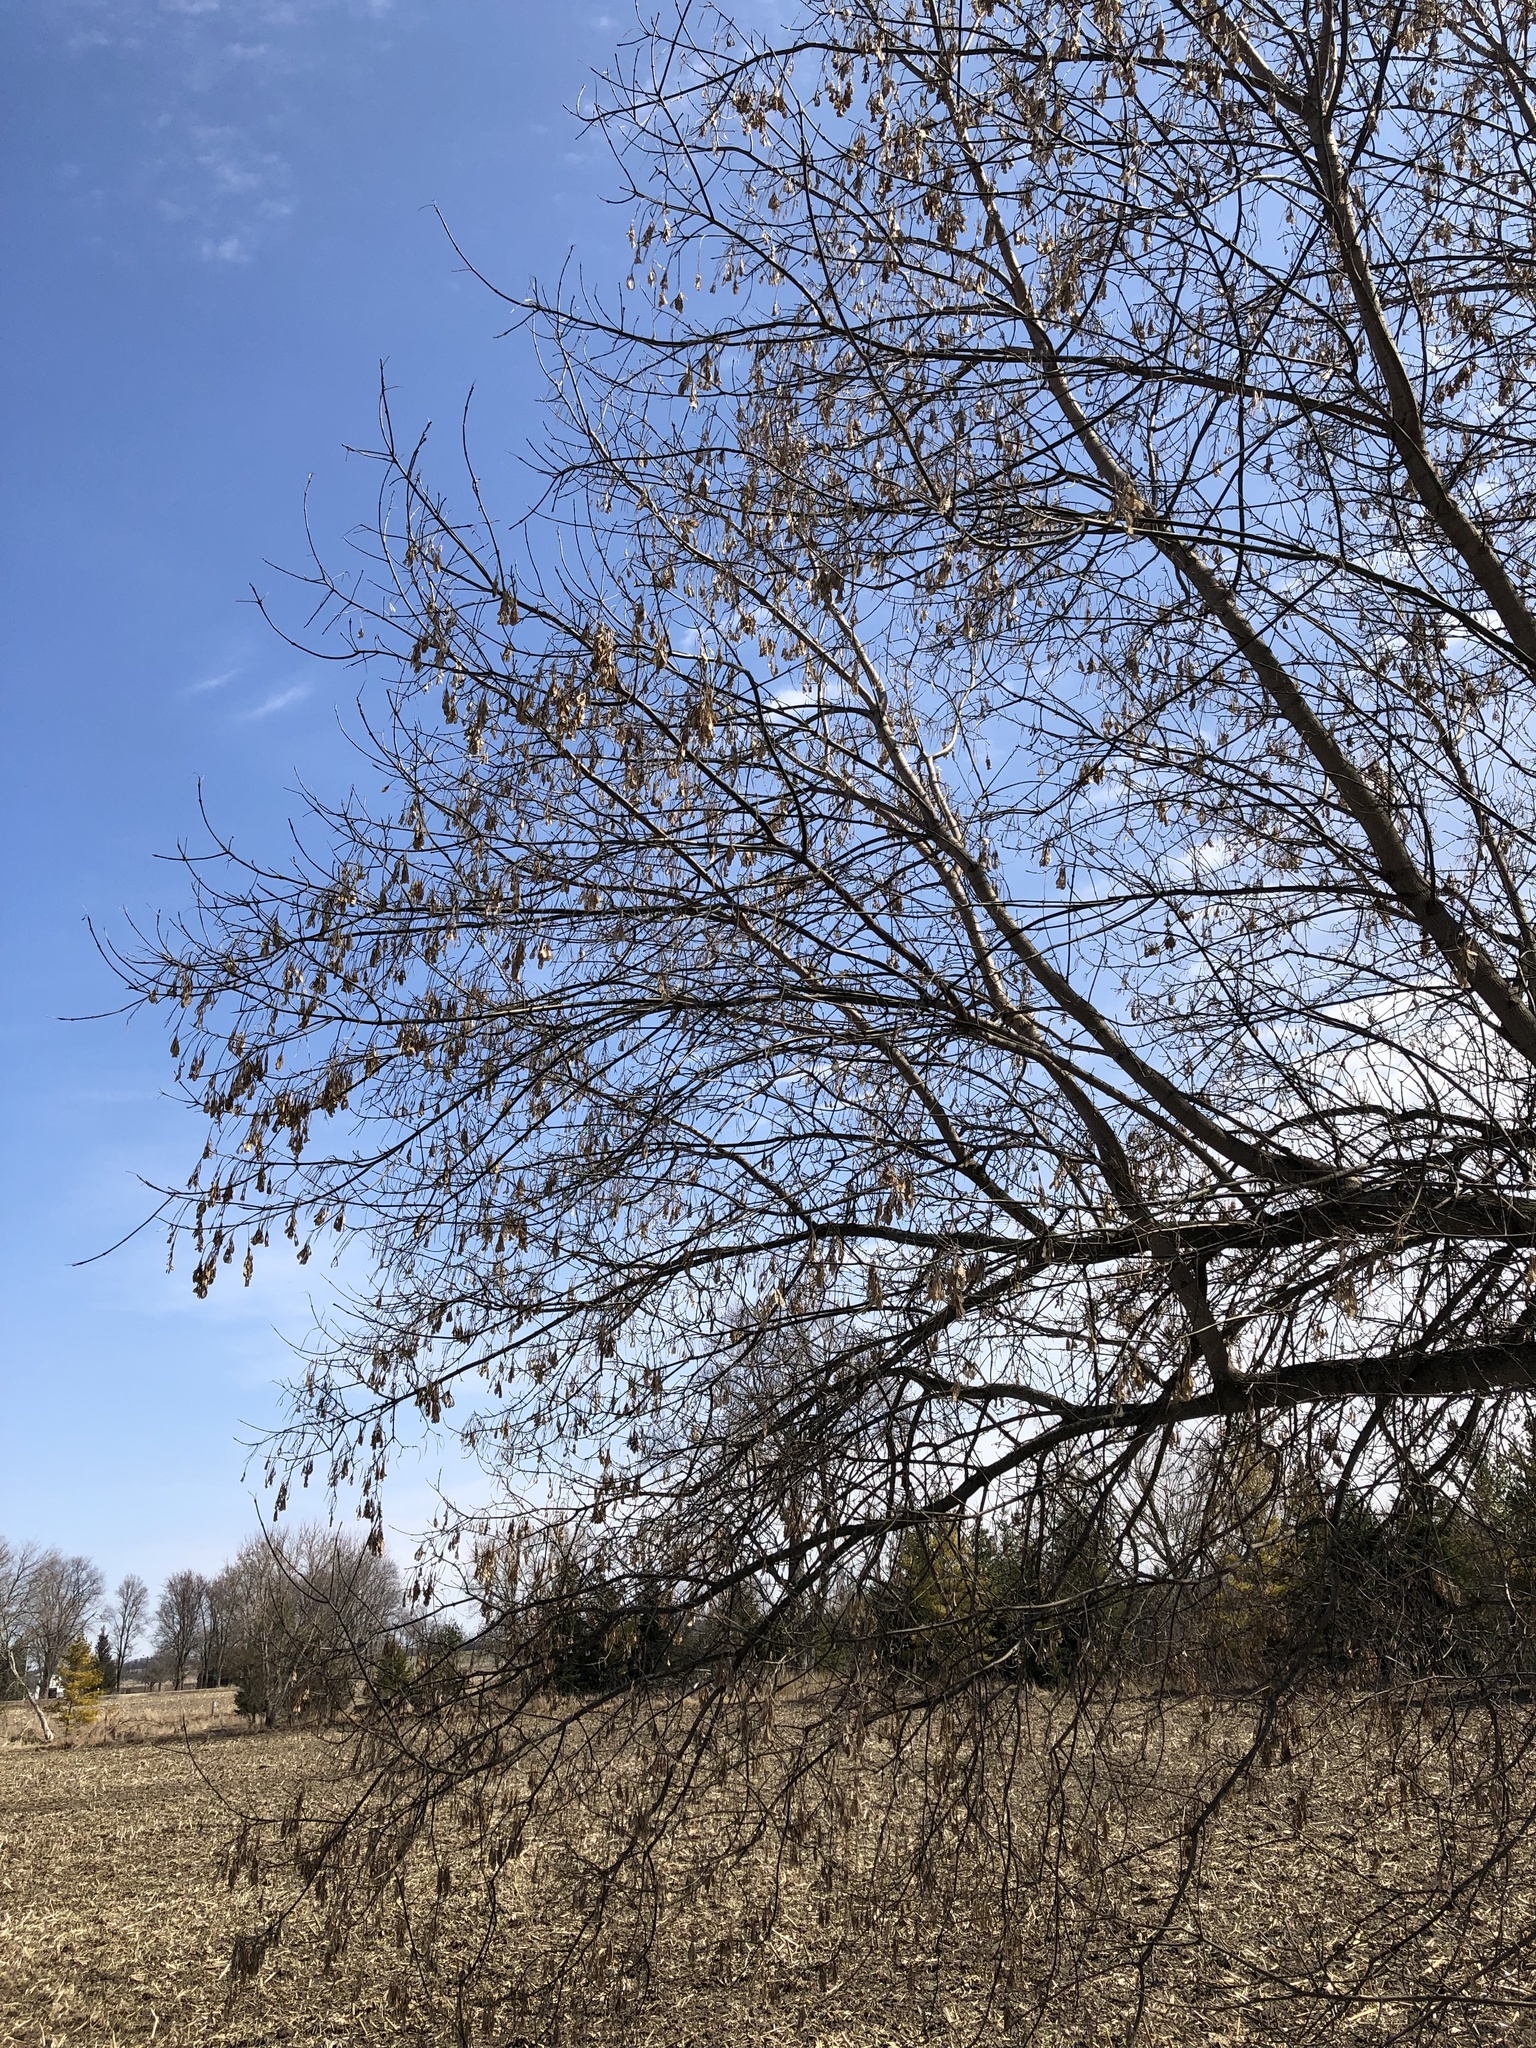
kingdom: Plantae
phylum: Tracheophyta
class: Magnoliopsida
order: Sapindales
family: Sapindaceae
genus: Acer
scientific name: Acer negundo
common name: Ashleaf maple
